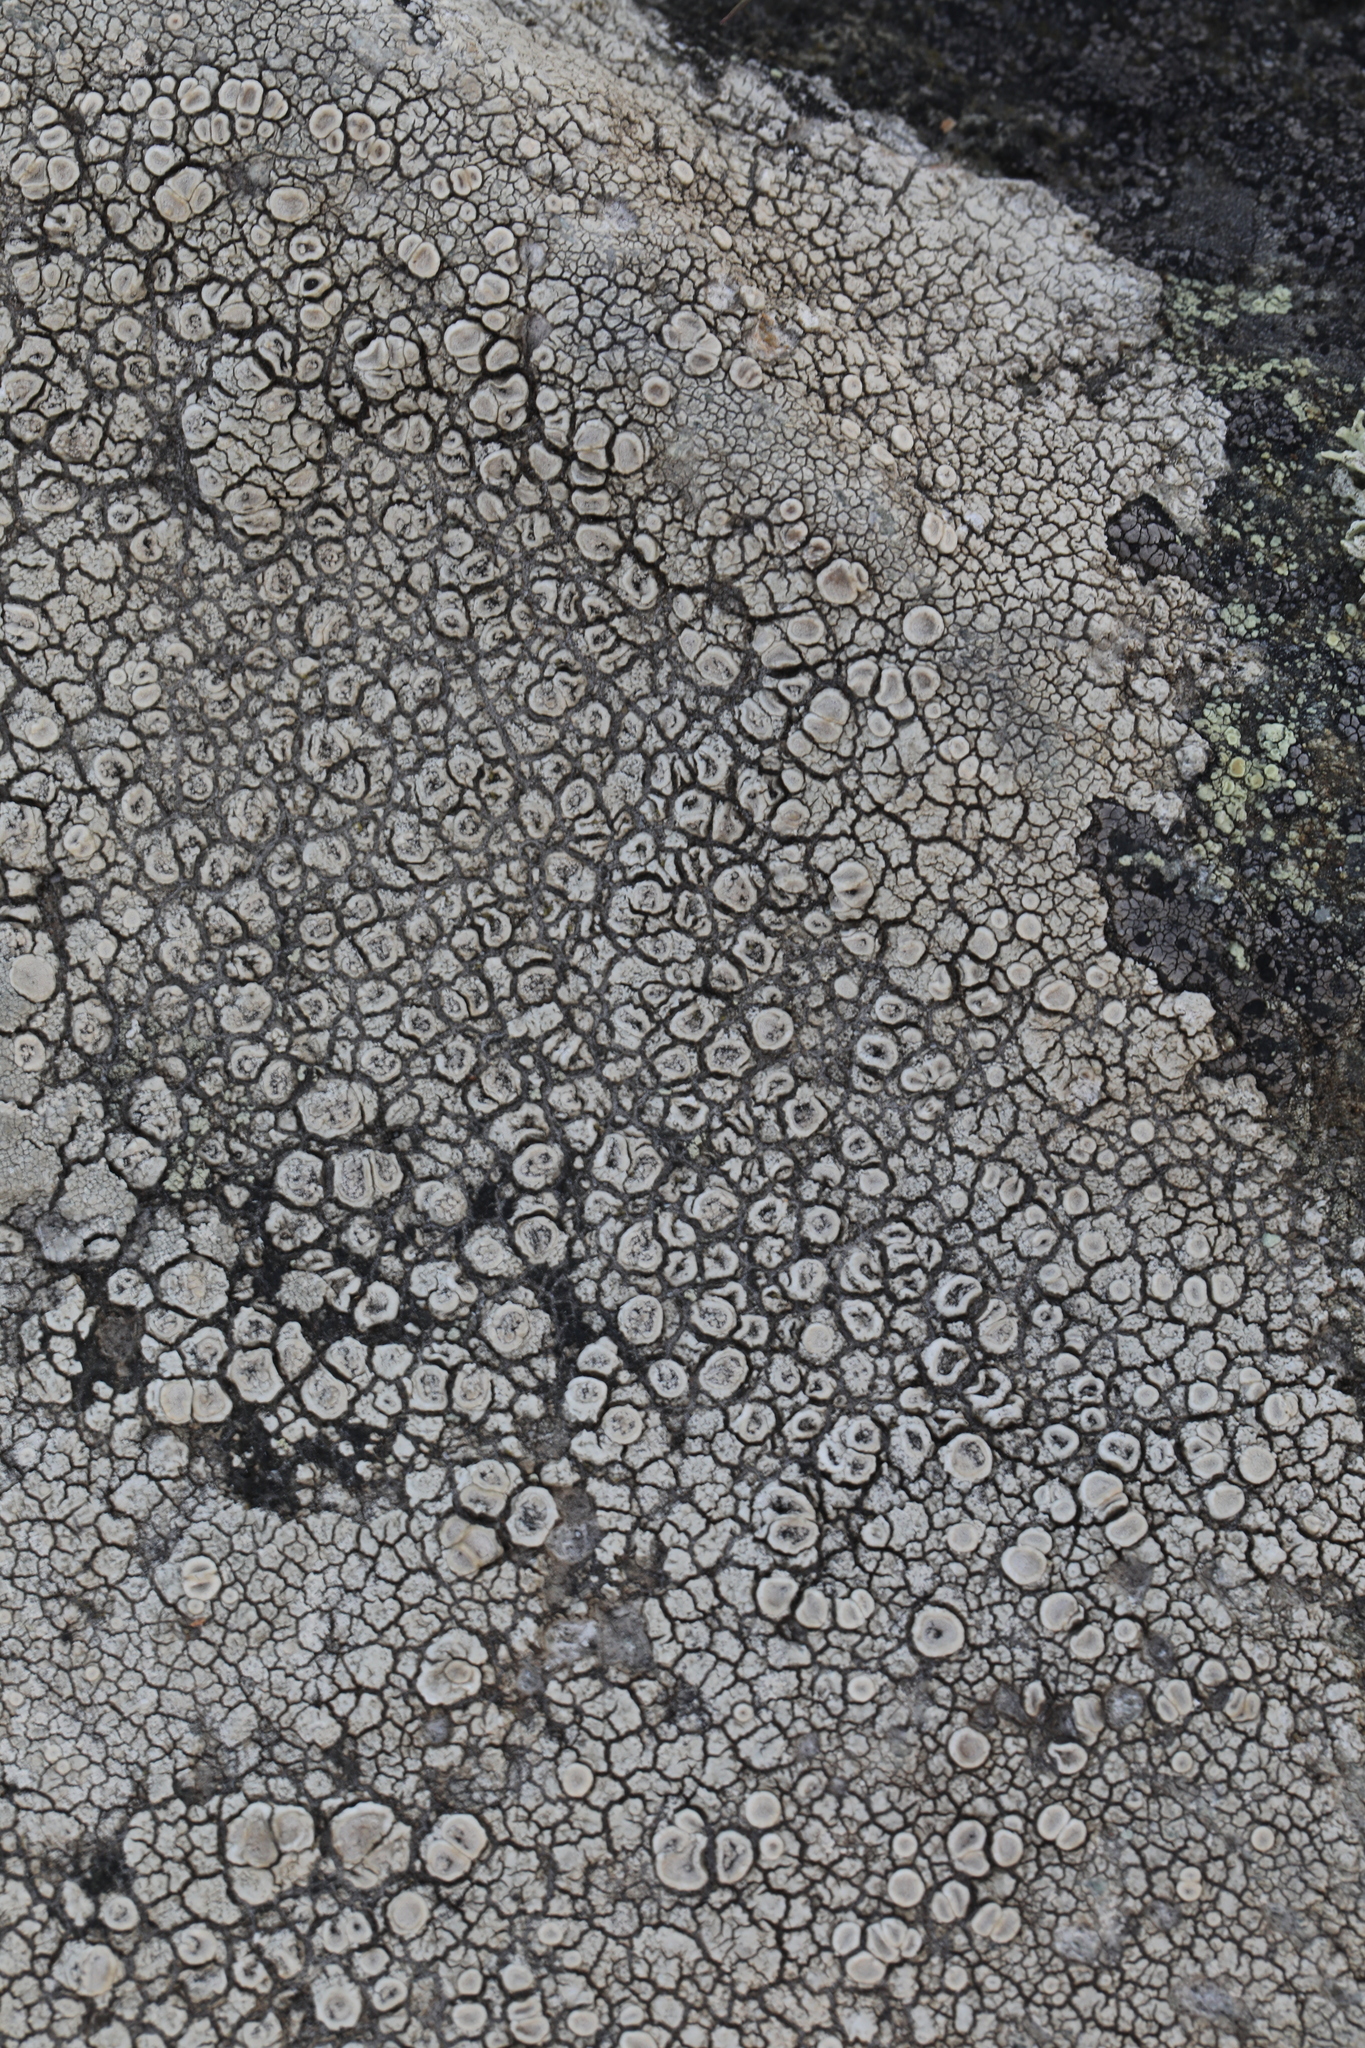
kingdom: Fungi
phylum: Ascomycota
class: Lecanoromycetes
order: Pertusariales
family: Ochrolechiaceae
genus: Ochrolechia
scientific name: Ochrolechia parella
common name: Crab's eye lichen
